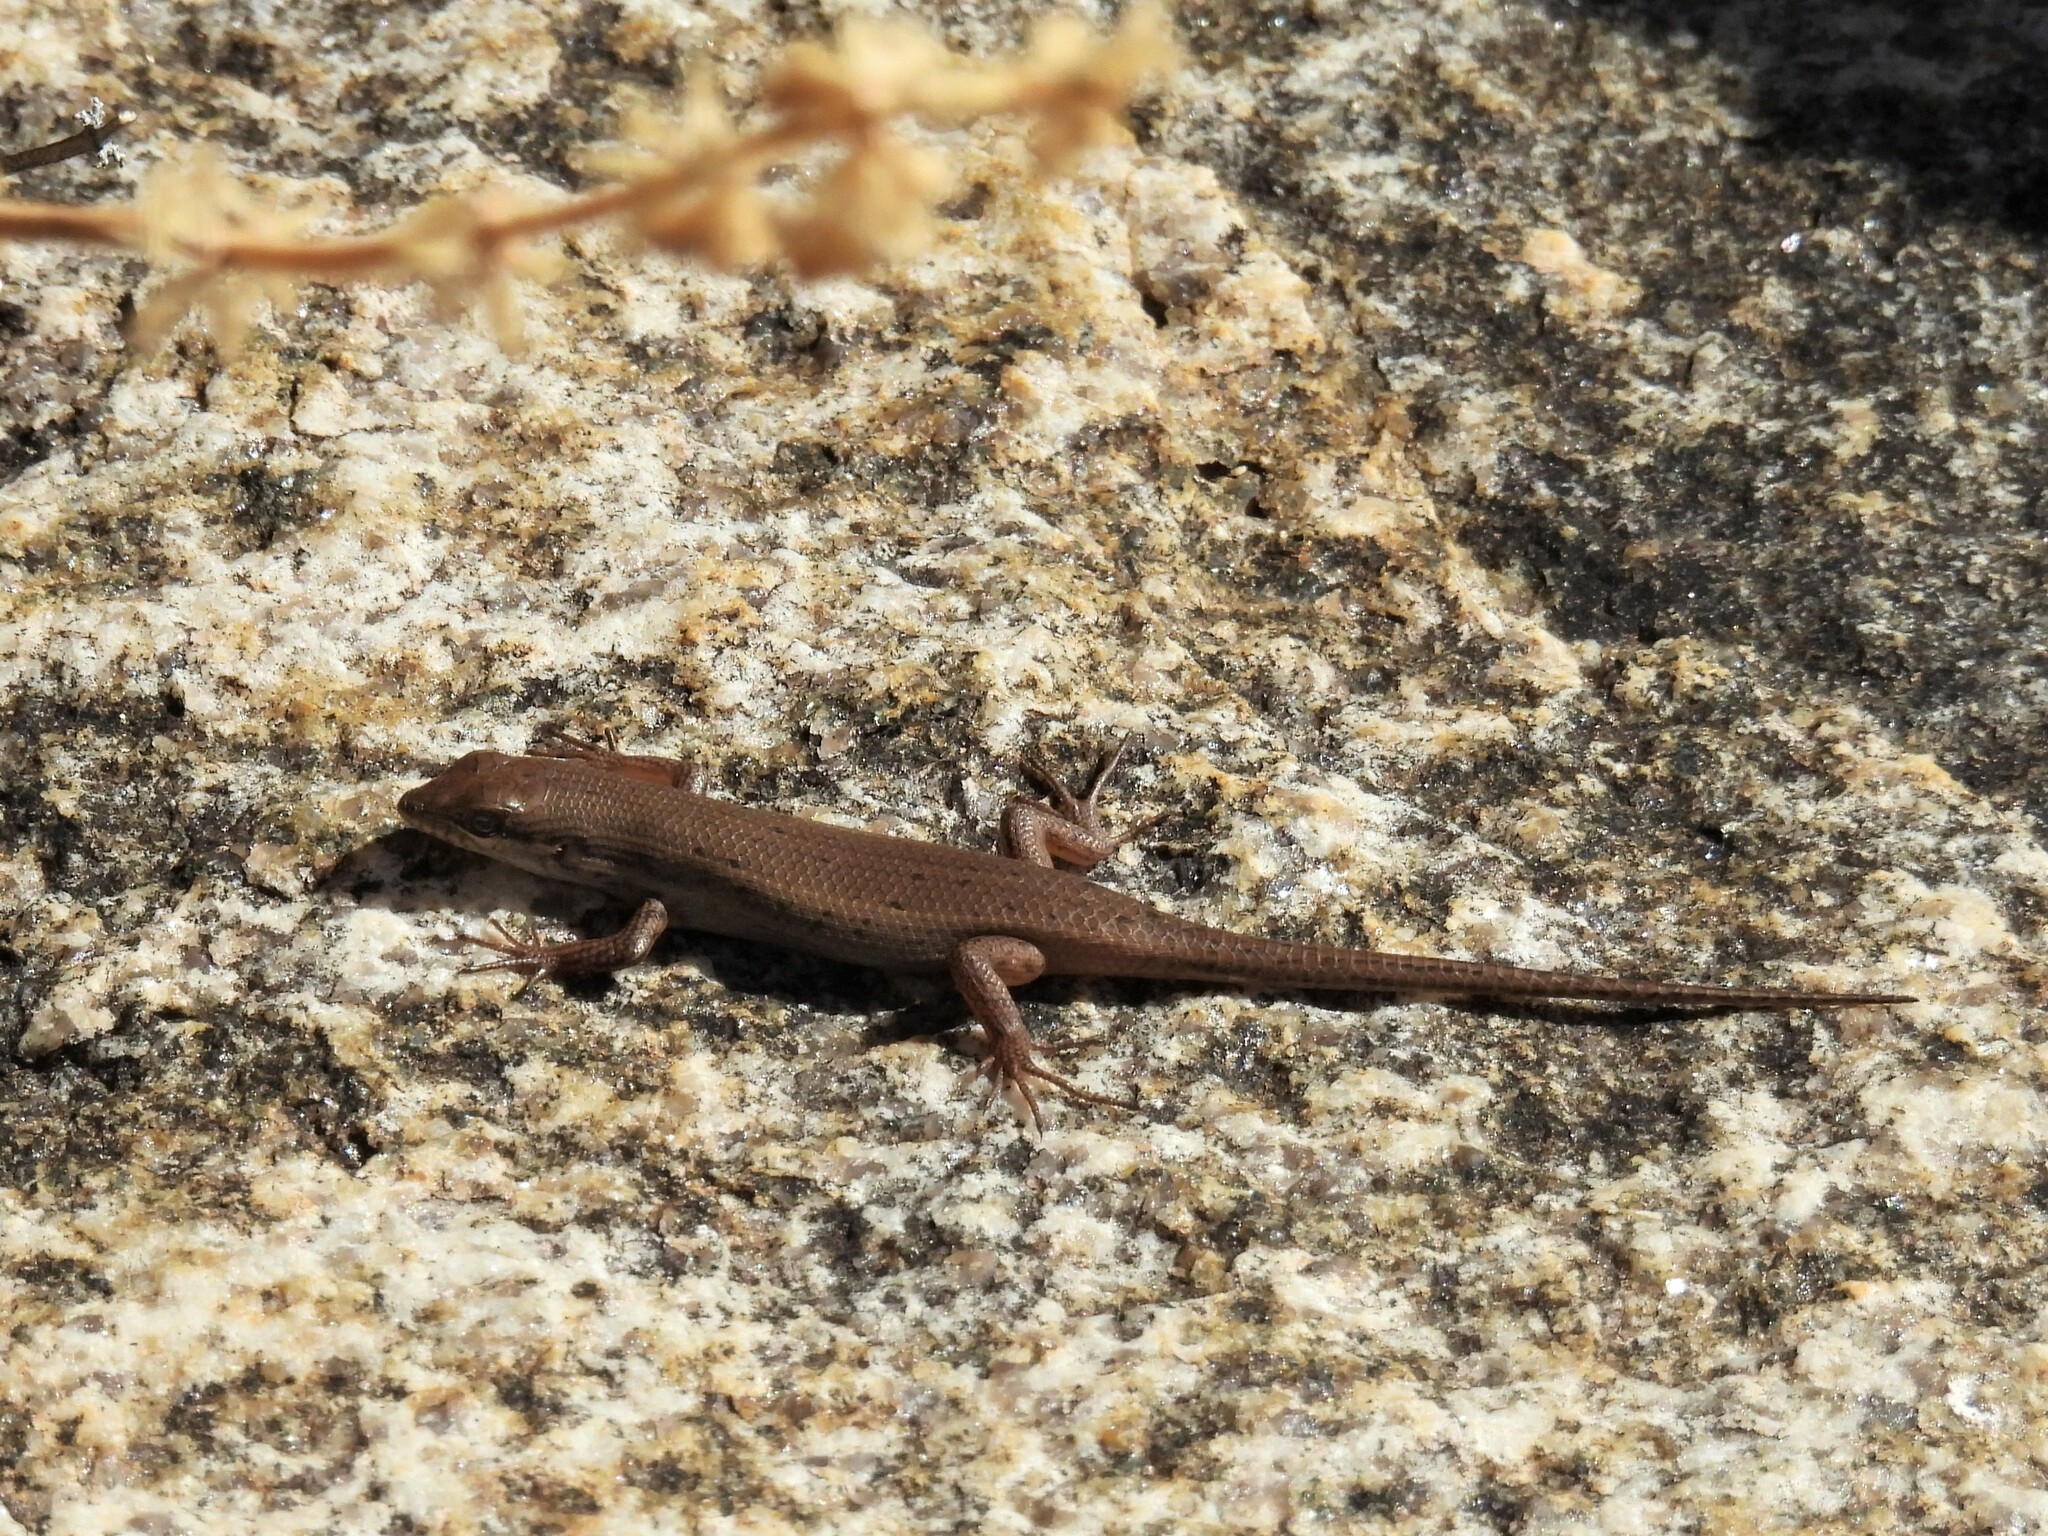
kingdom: Animalia
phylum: Chordata
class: Squamata
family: Scincidae
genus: Trachylepis
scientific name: Trachylepis variegata
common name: Variegated skink
